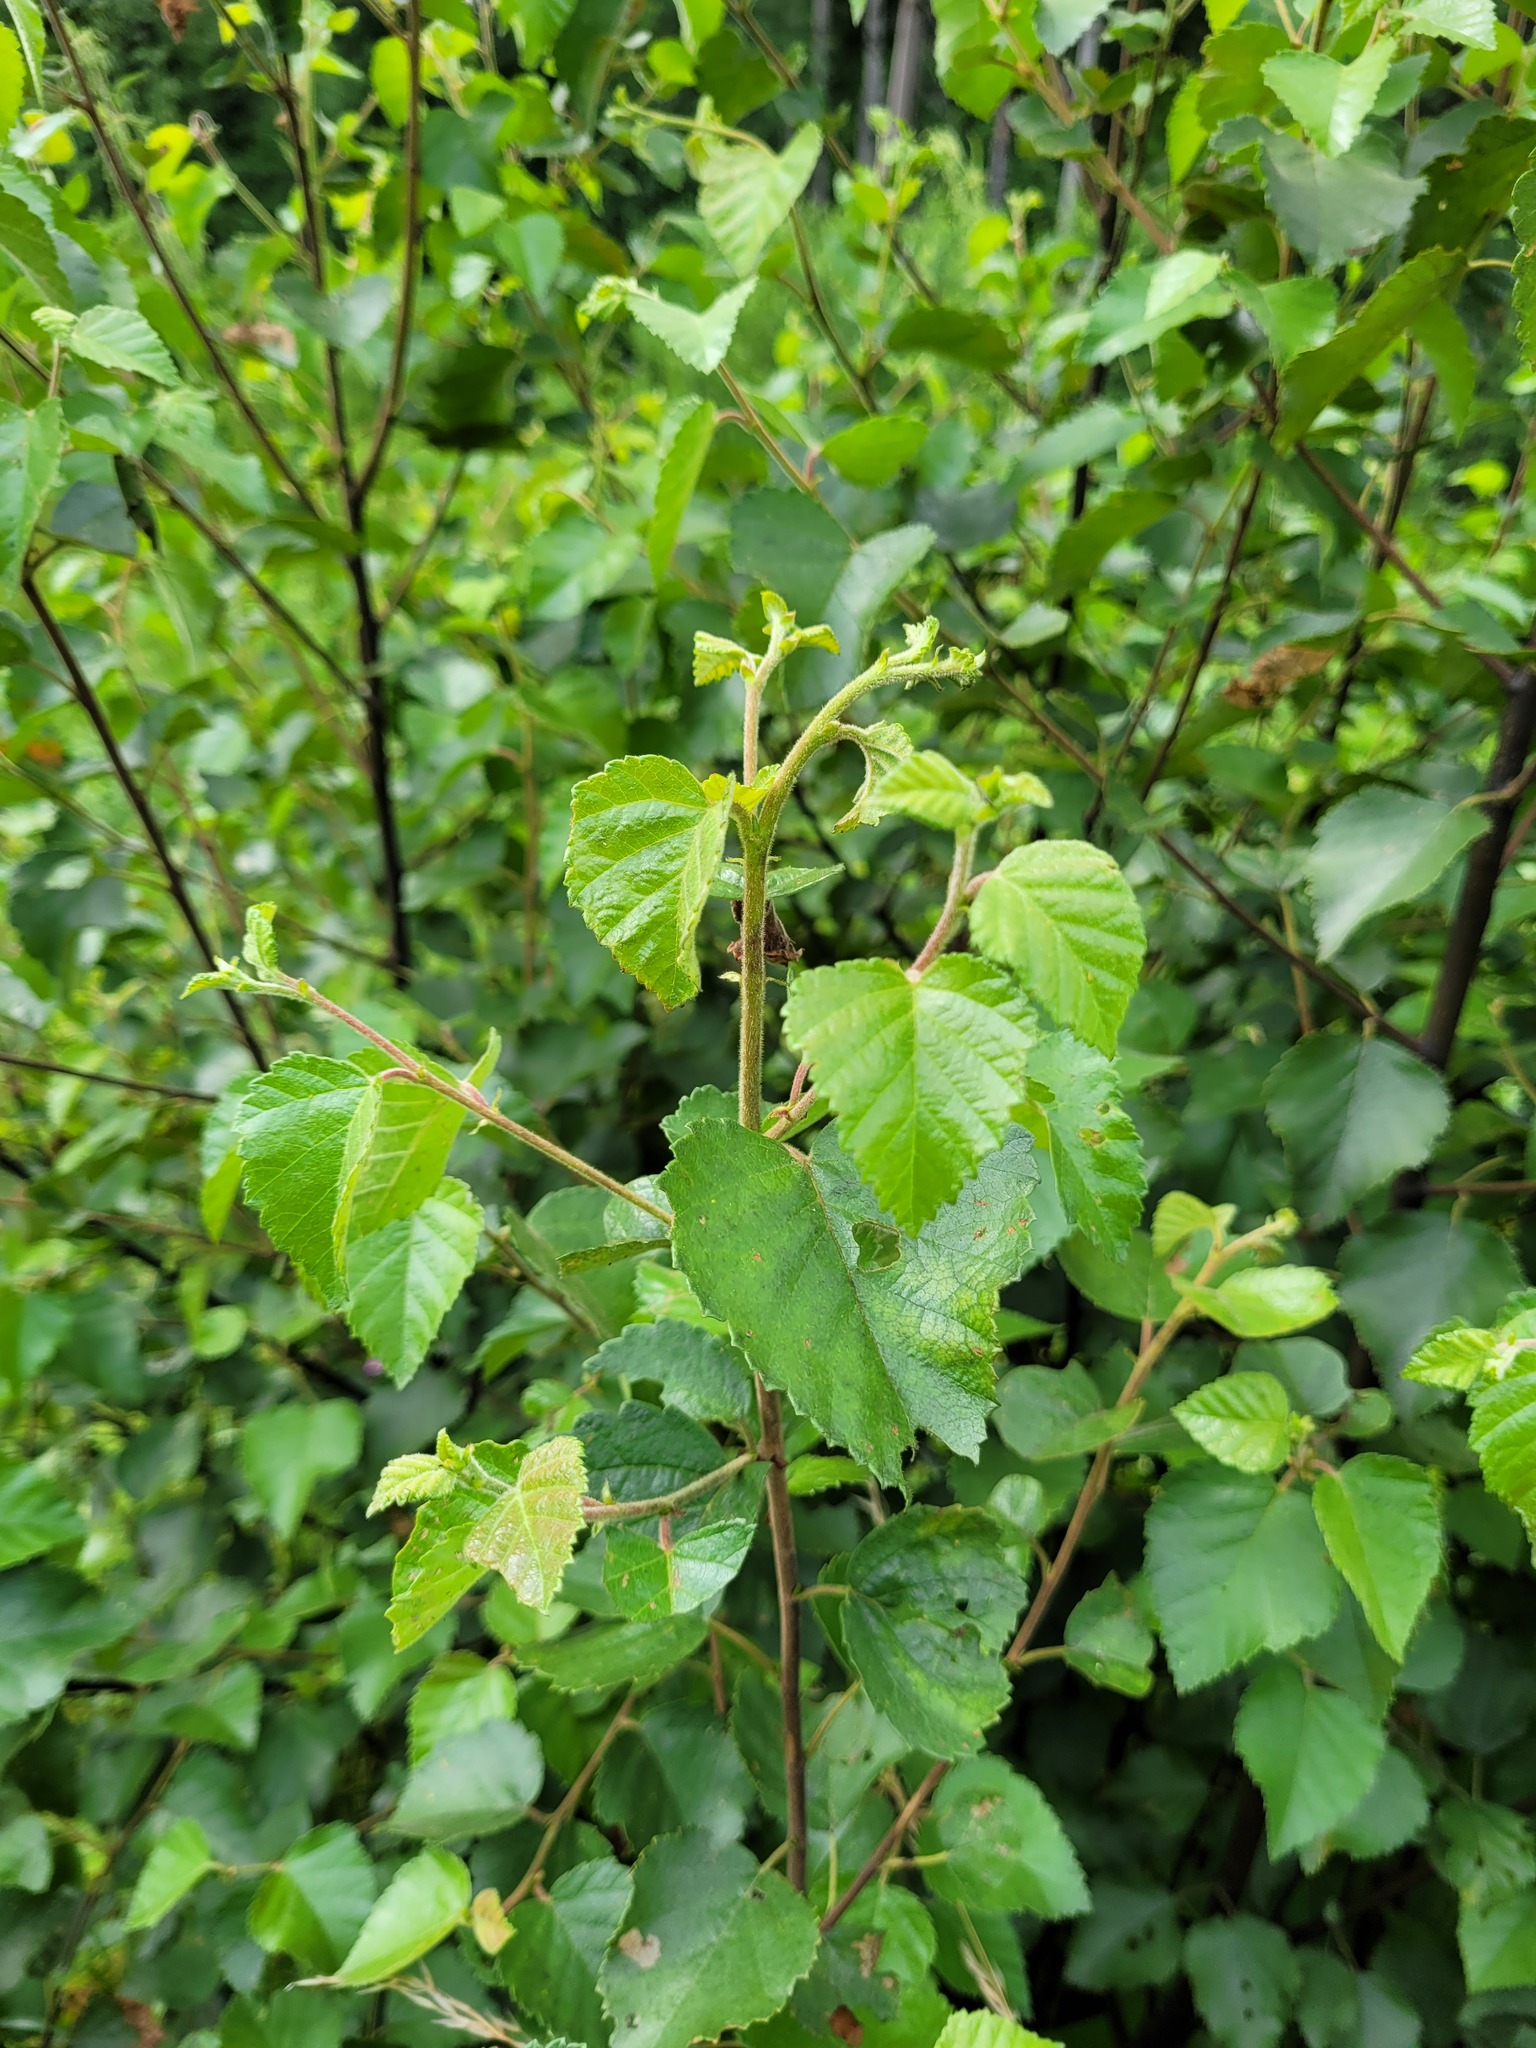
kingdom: Plantae
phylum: Tracheophyta
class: Magnoliopsida
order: Fagales
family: Betulaceae
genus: Betula
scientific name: Betula pubescens
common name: Downy birch
